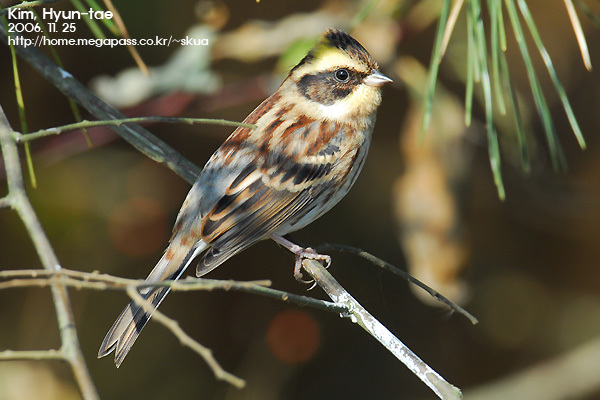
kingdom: Animalia
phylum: Chordata
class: Aves
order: Passeriformes
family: Emberizidae
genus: Emberiza
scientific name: Emberiza elegans
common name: Yellow-throated bunting
